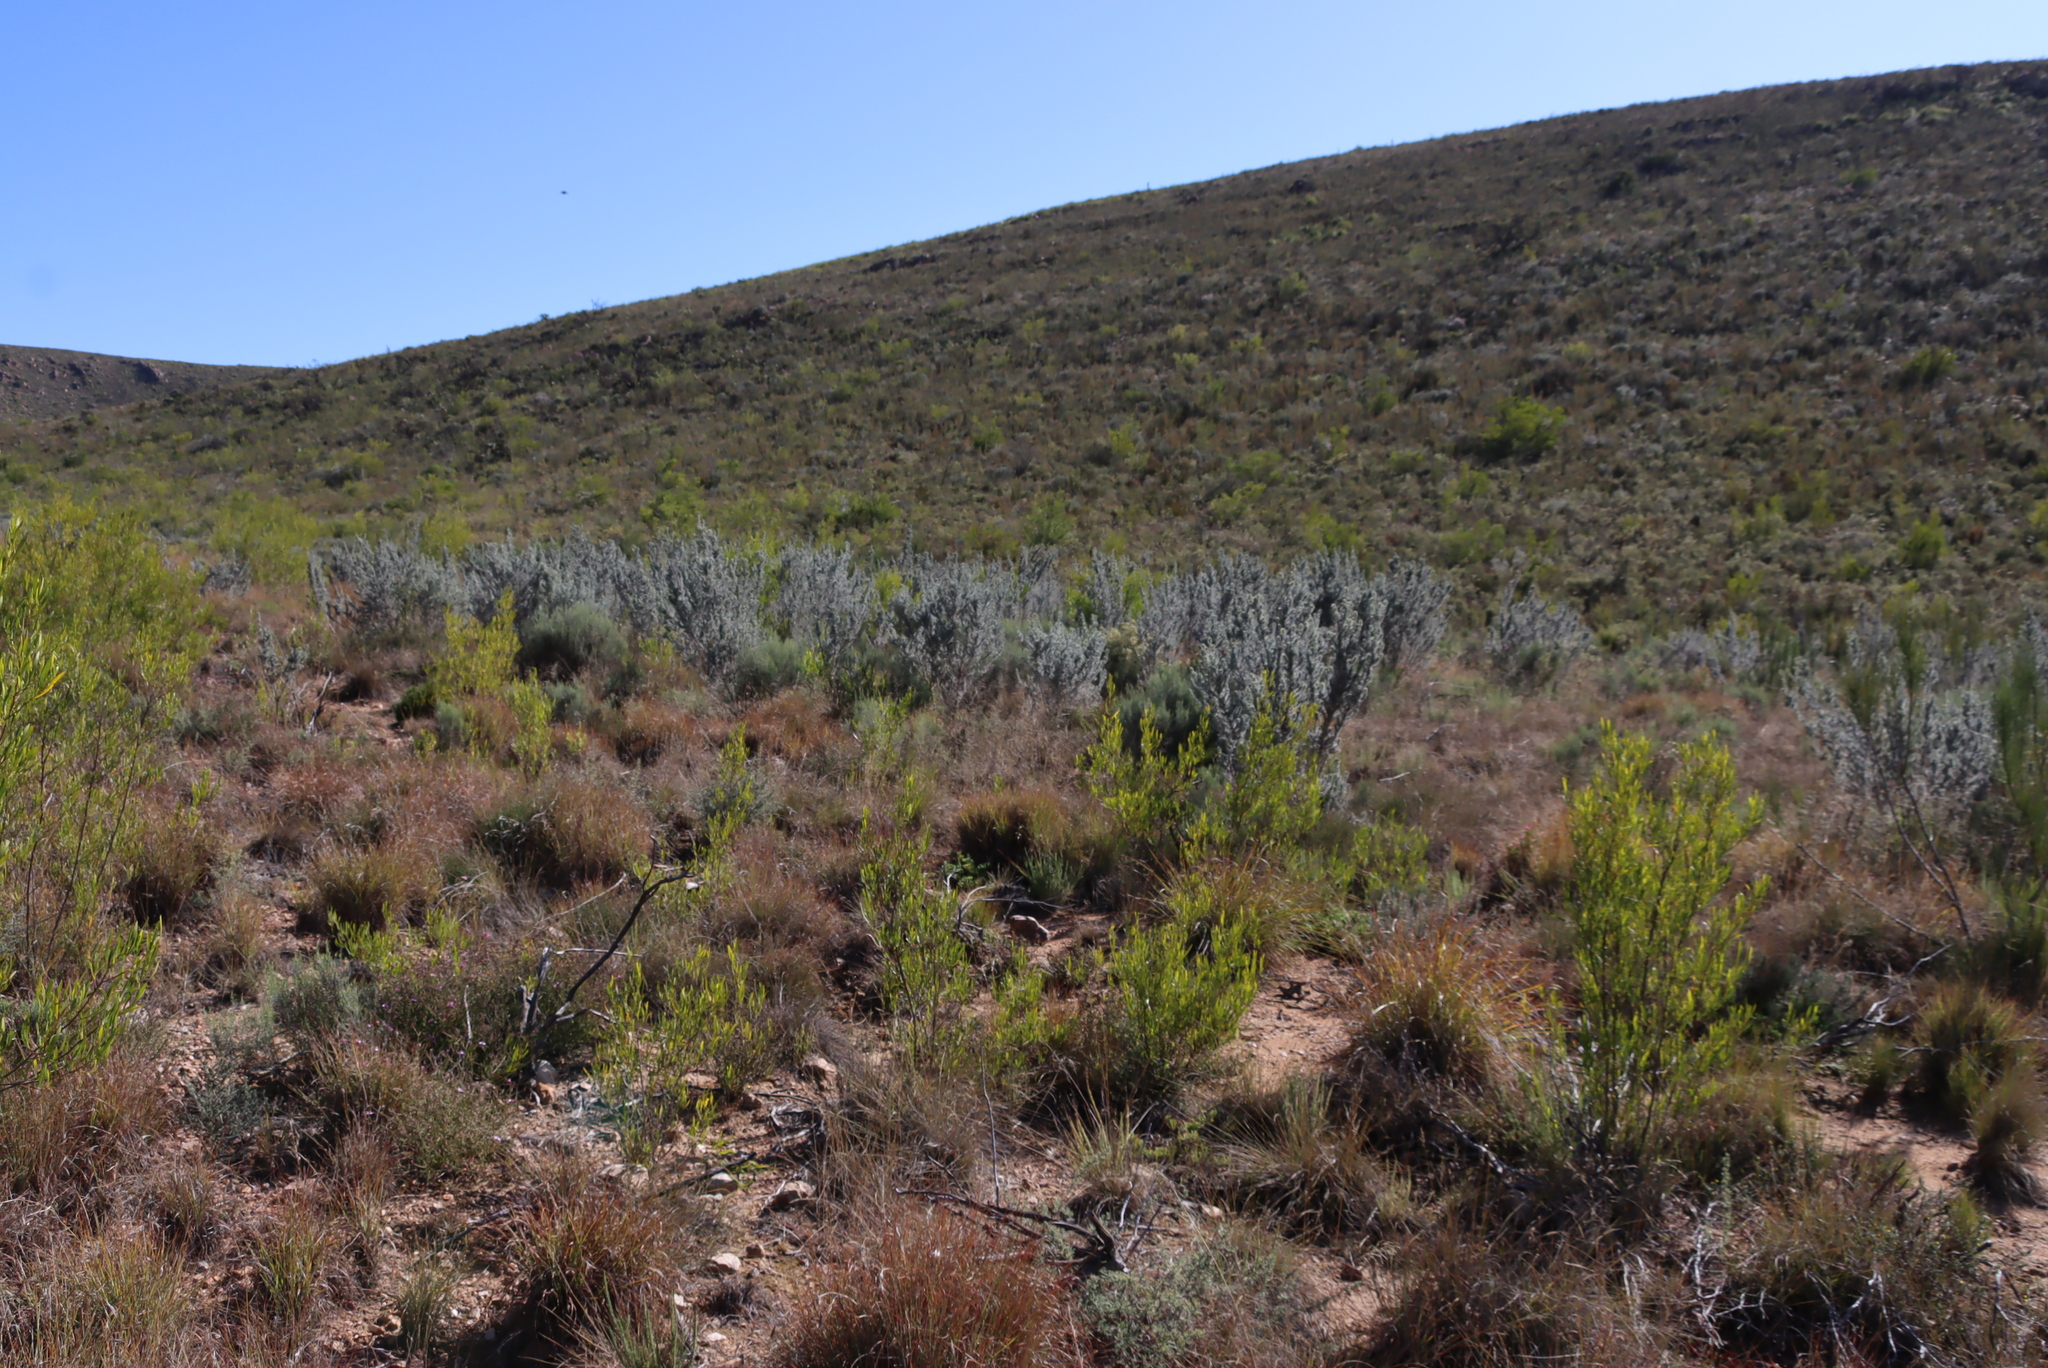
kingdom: Plantae
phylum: Tracheophyta
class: Magnoliopsida
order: Sapindales
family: Sapindaceae
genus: Dodonaea
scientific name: Dodonaea viscosa
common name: Hopbush
